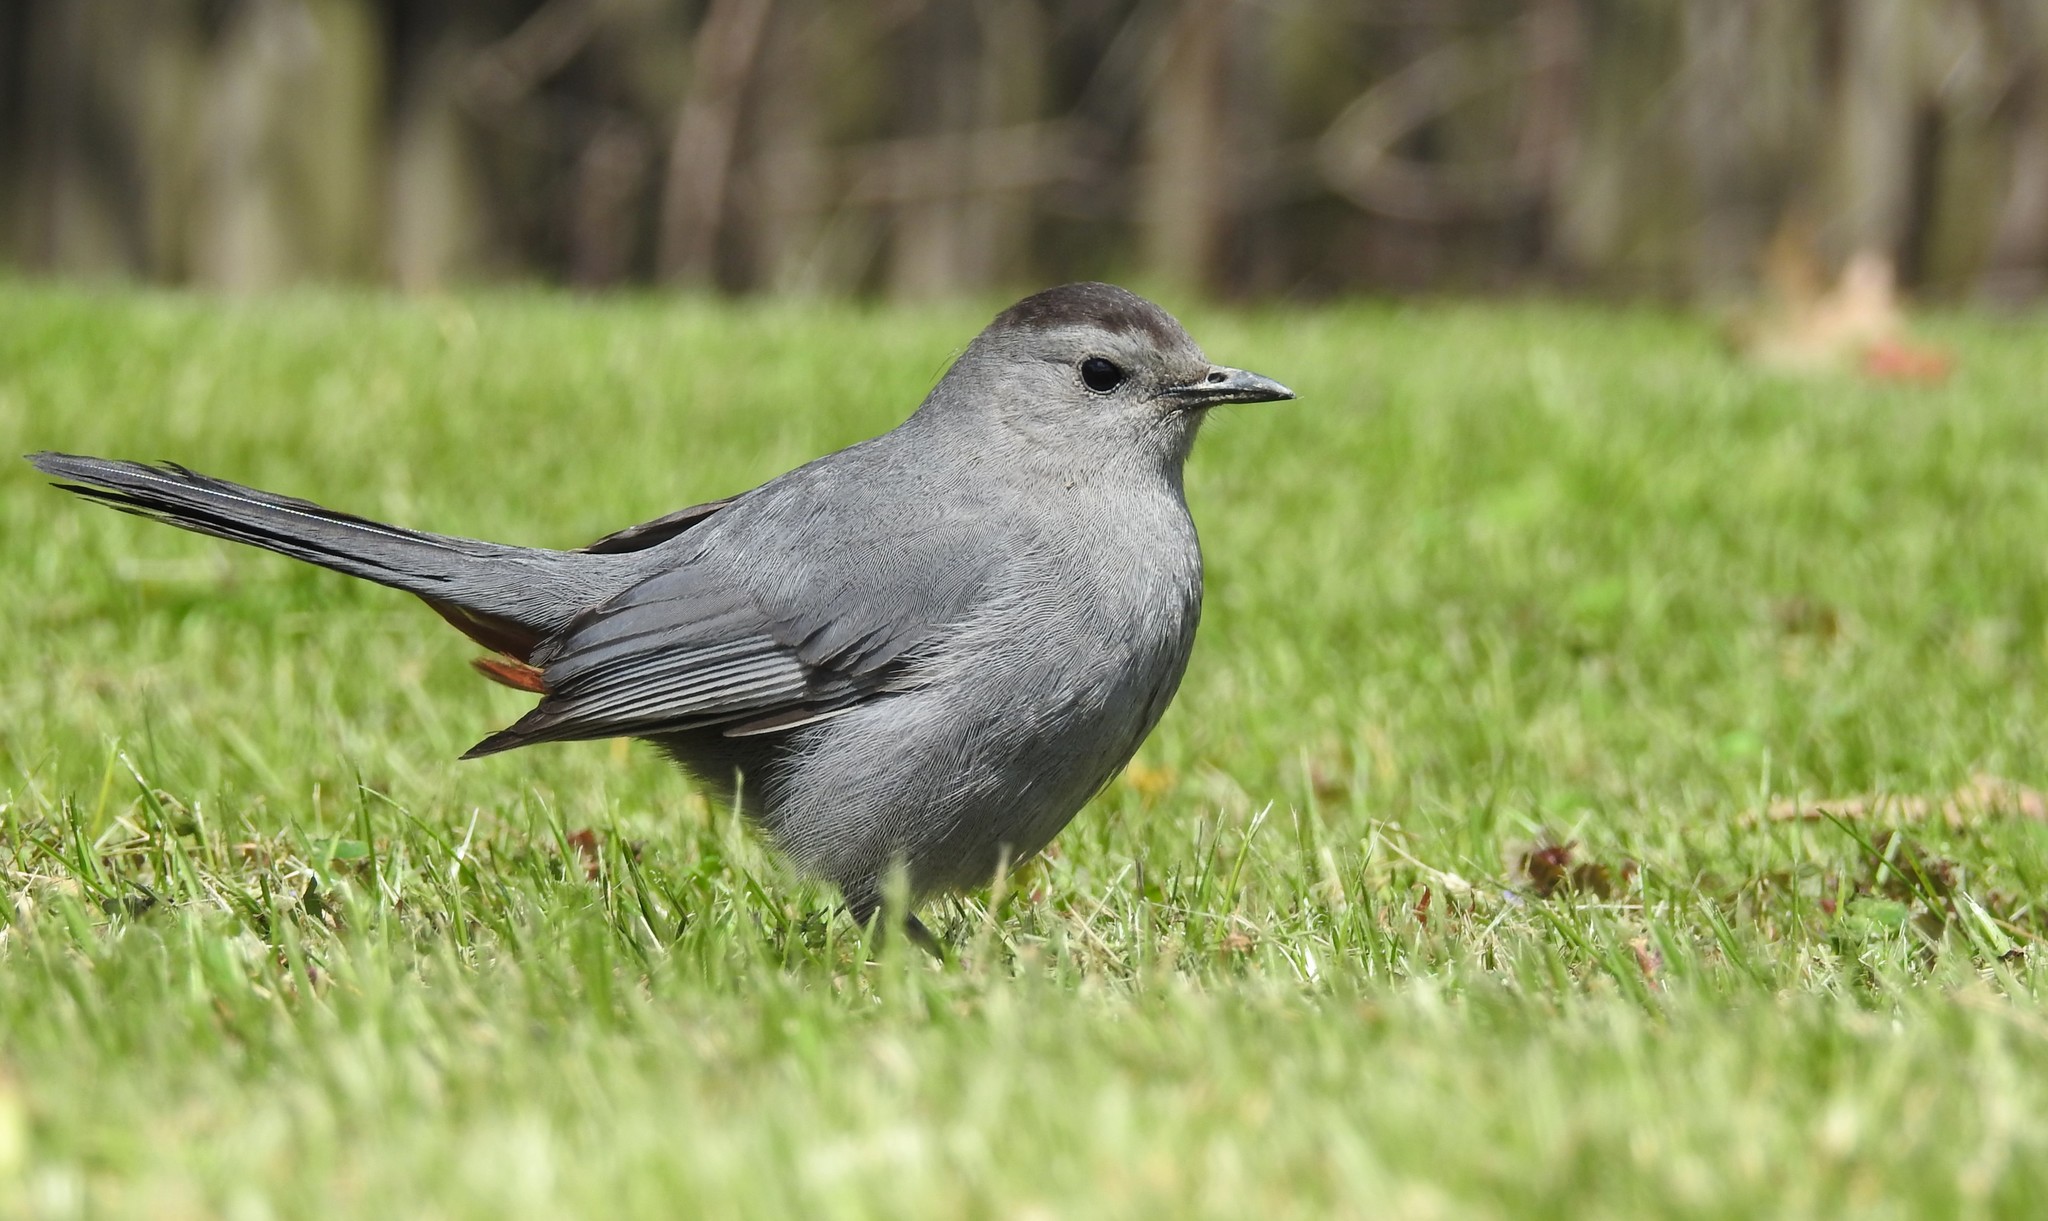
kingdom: Animalia
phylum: Chordata
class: Aves
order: Passeriformes
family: Mimidae
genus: Dumetella
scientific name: Dumetella carolinensis
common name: Gray catbird
